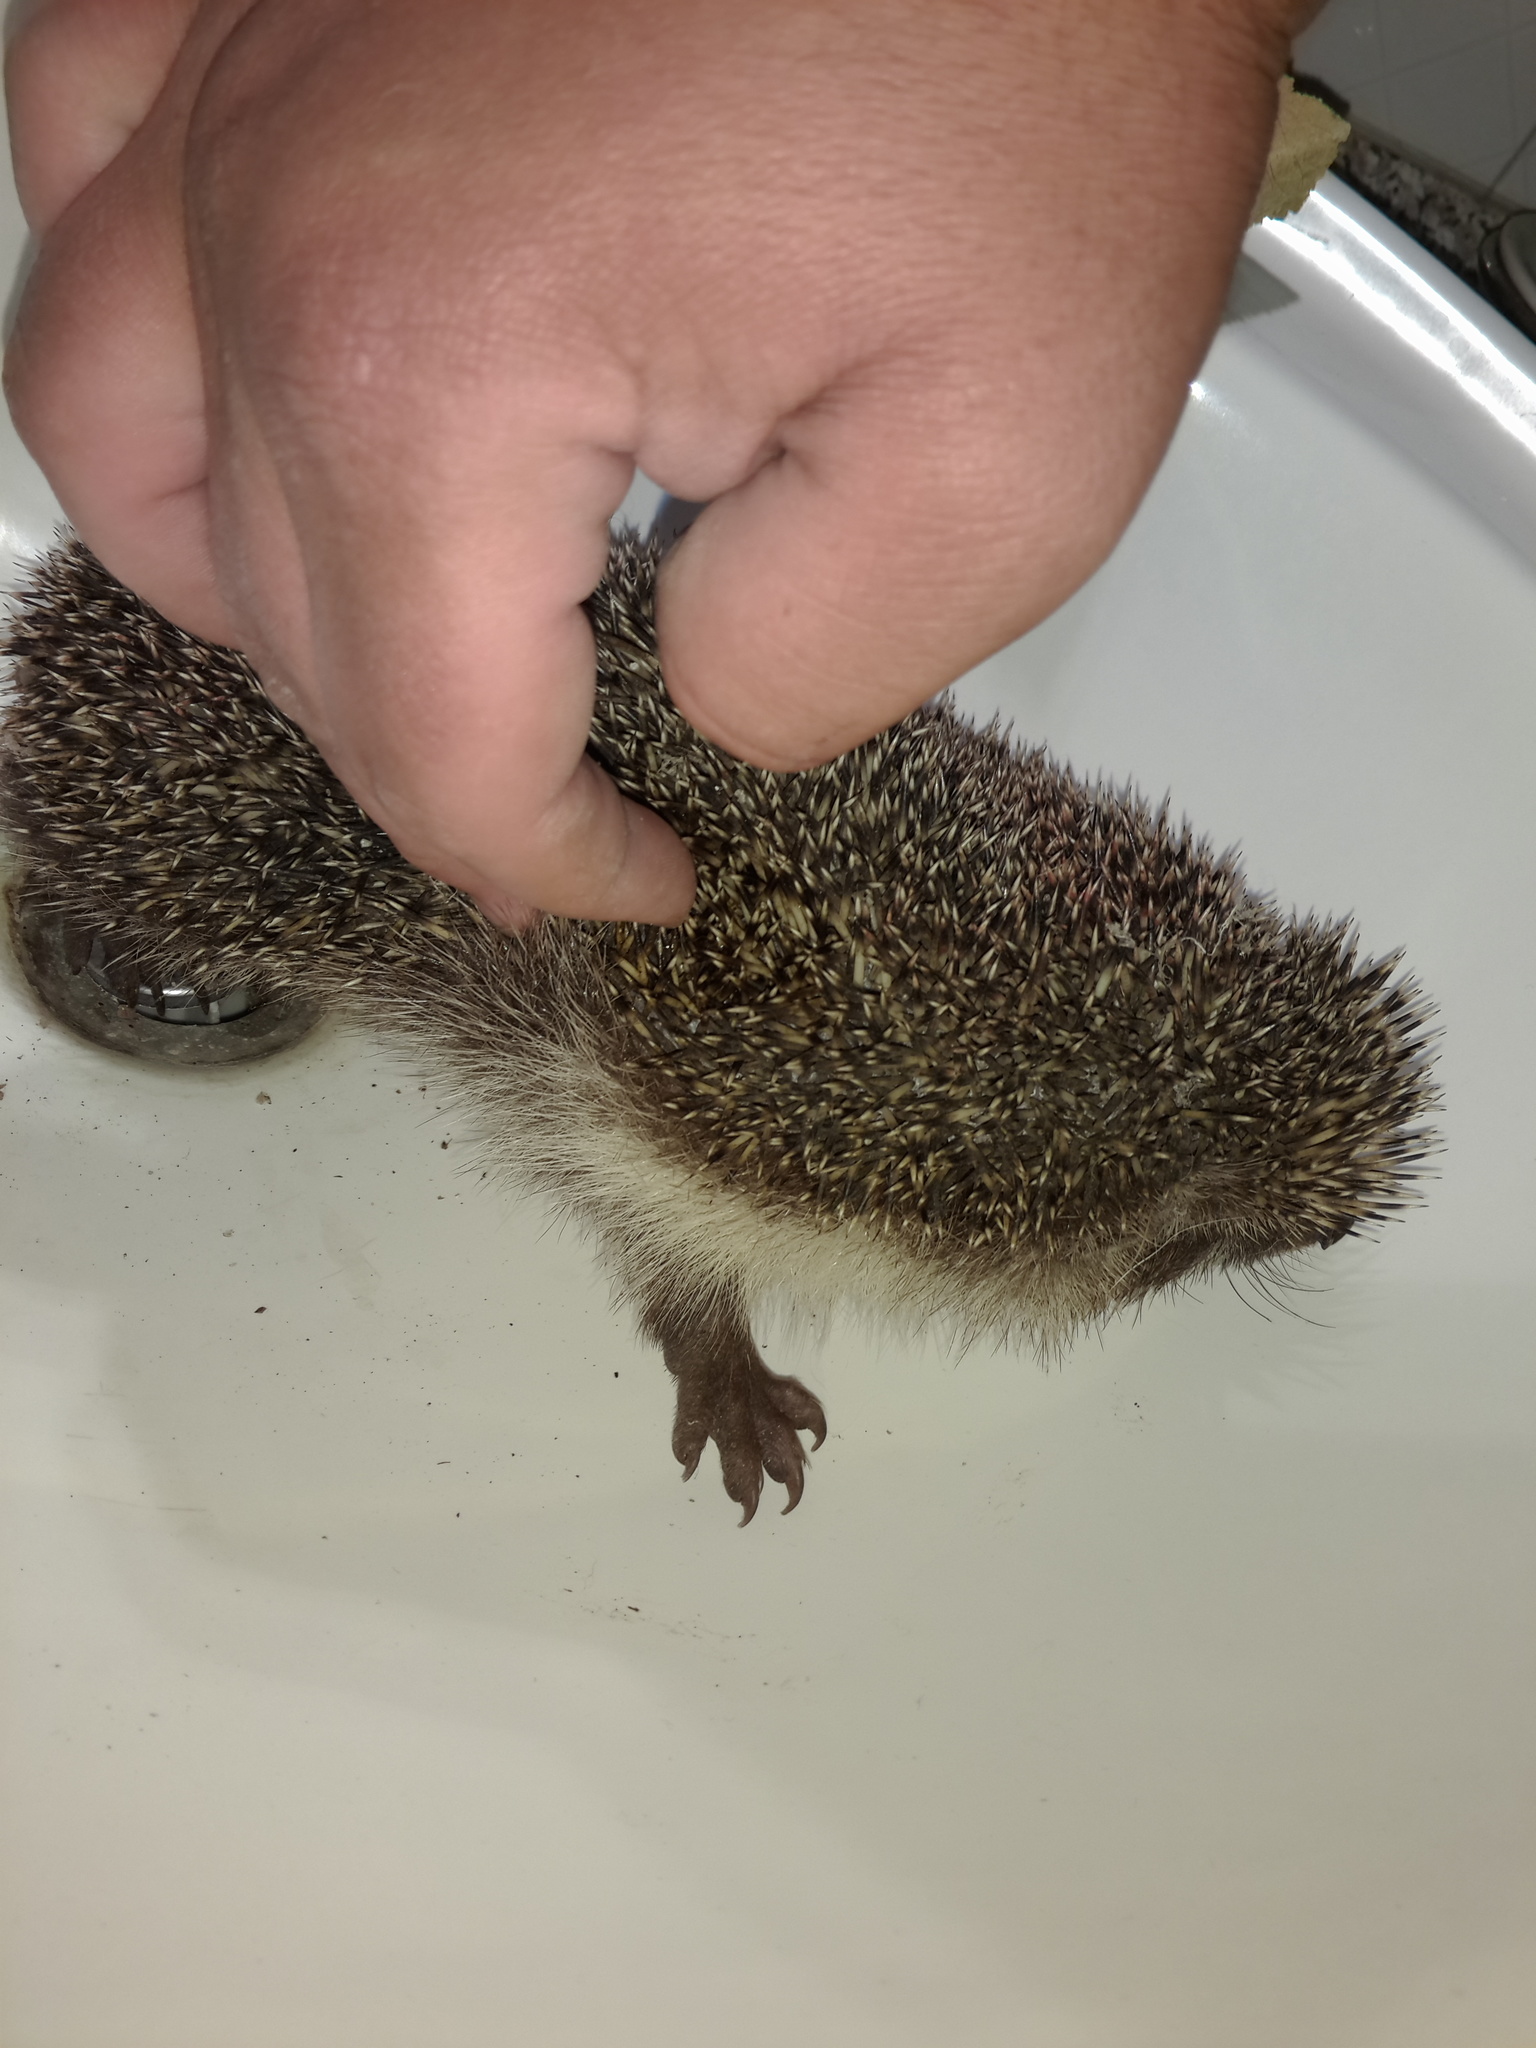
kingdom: Animalia
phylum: Chordata
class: Mammalia
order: Erinaceomorpha
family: Erinaceidae
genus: Erinaceus
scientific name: Erinaceus roumanicus
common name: Northern white-breasted hedgehog
